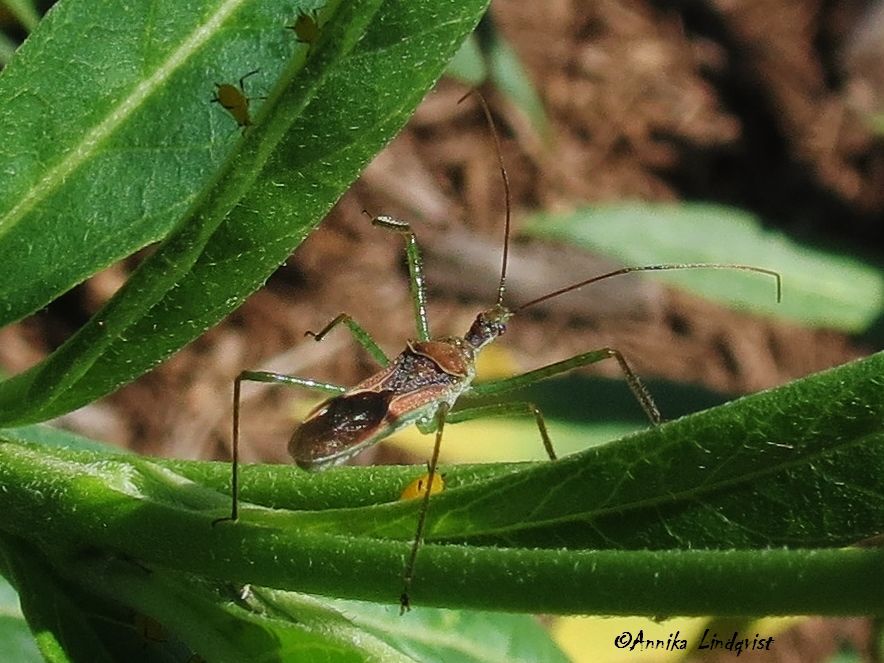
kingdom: Animalia
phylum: Arthropoda
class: Insecta
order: Hemiptera
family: Reduviidae
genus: Zelus
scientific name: Zelus luridus
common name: Pale green assassin bug
